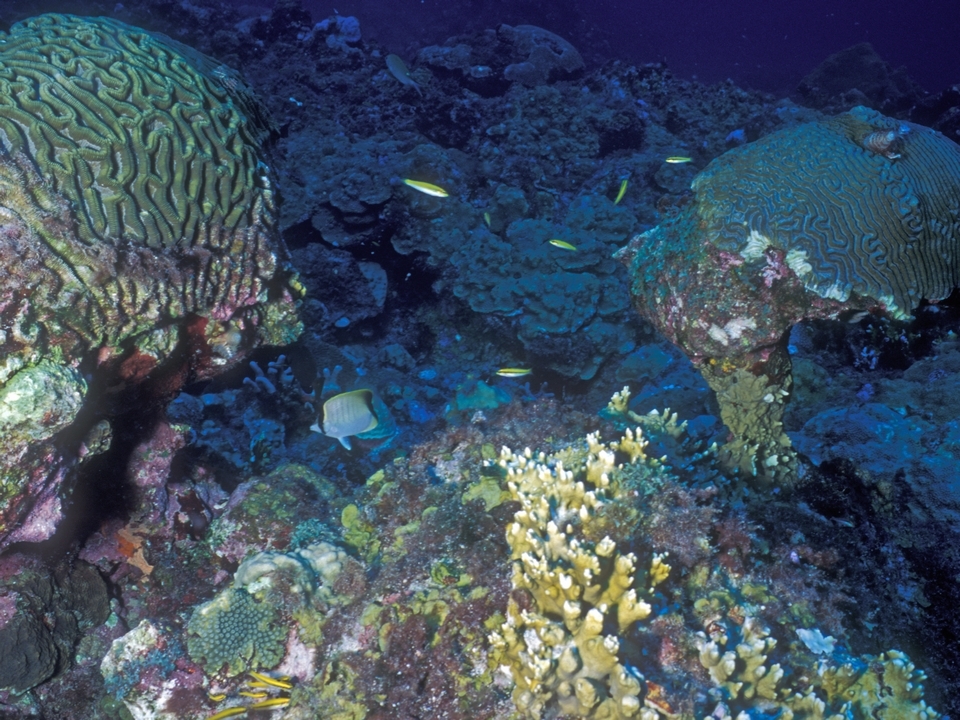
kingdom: Animalia
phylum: Chordata
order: Perciformes
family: Chaetodontidae
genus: Chaetodon
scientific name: Chaetodon sedentarius
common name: Reef butterflyfish
